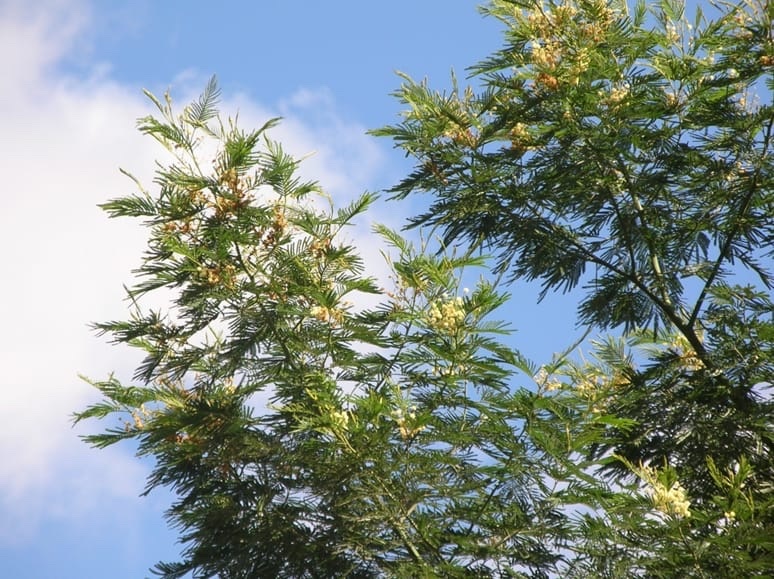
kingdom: Plantae
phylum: Tracheophyta
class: Magnoliopsida
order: Fabales
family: Fabaceae
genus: Acacia
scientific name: Acacia mearnsii
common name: Black wattle
